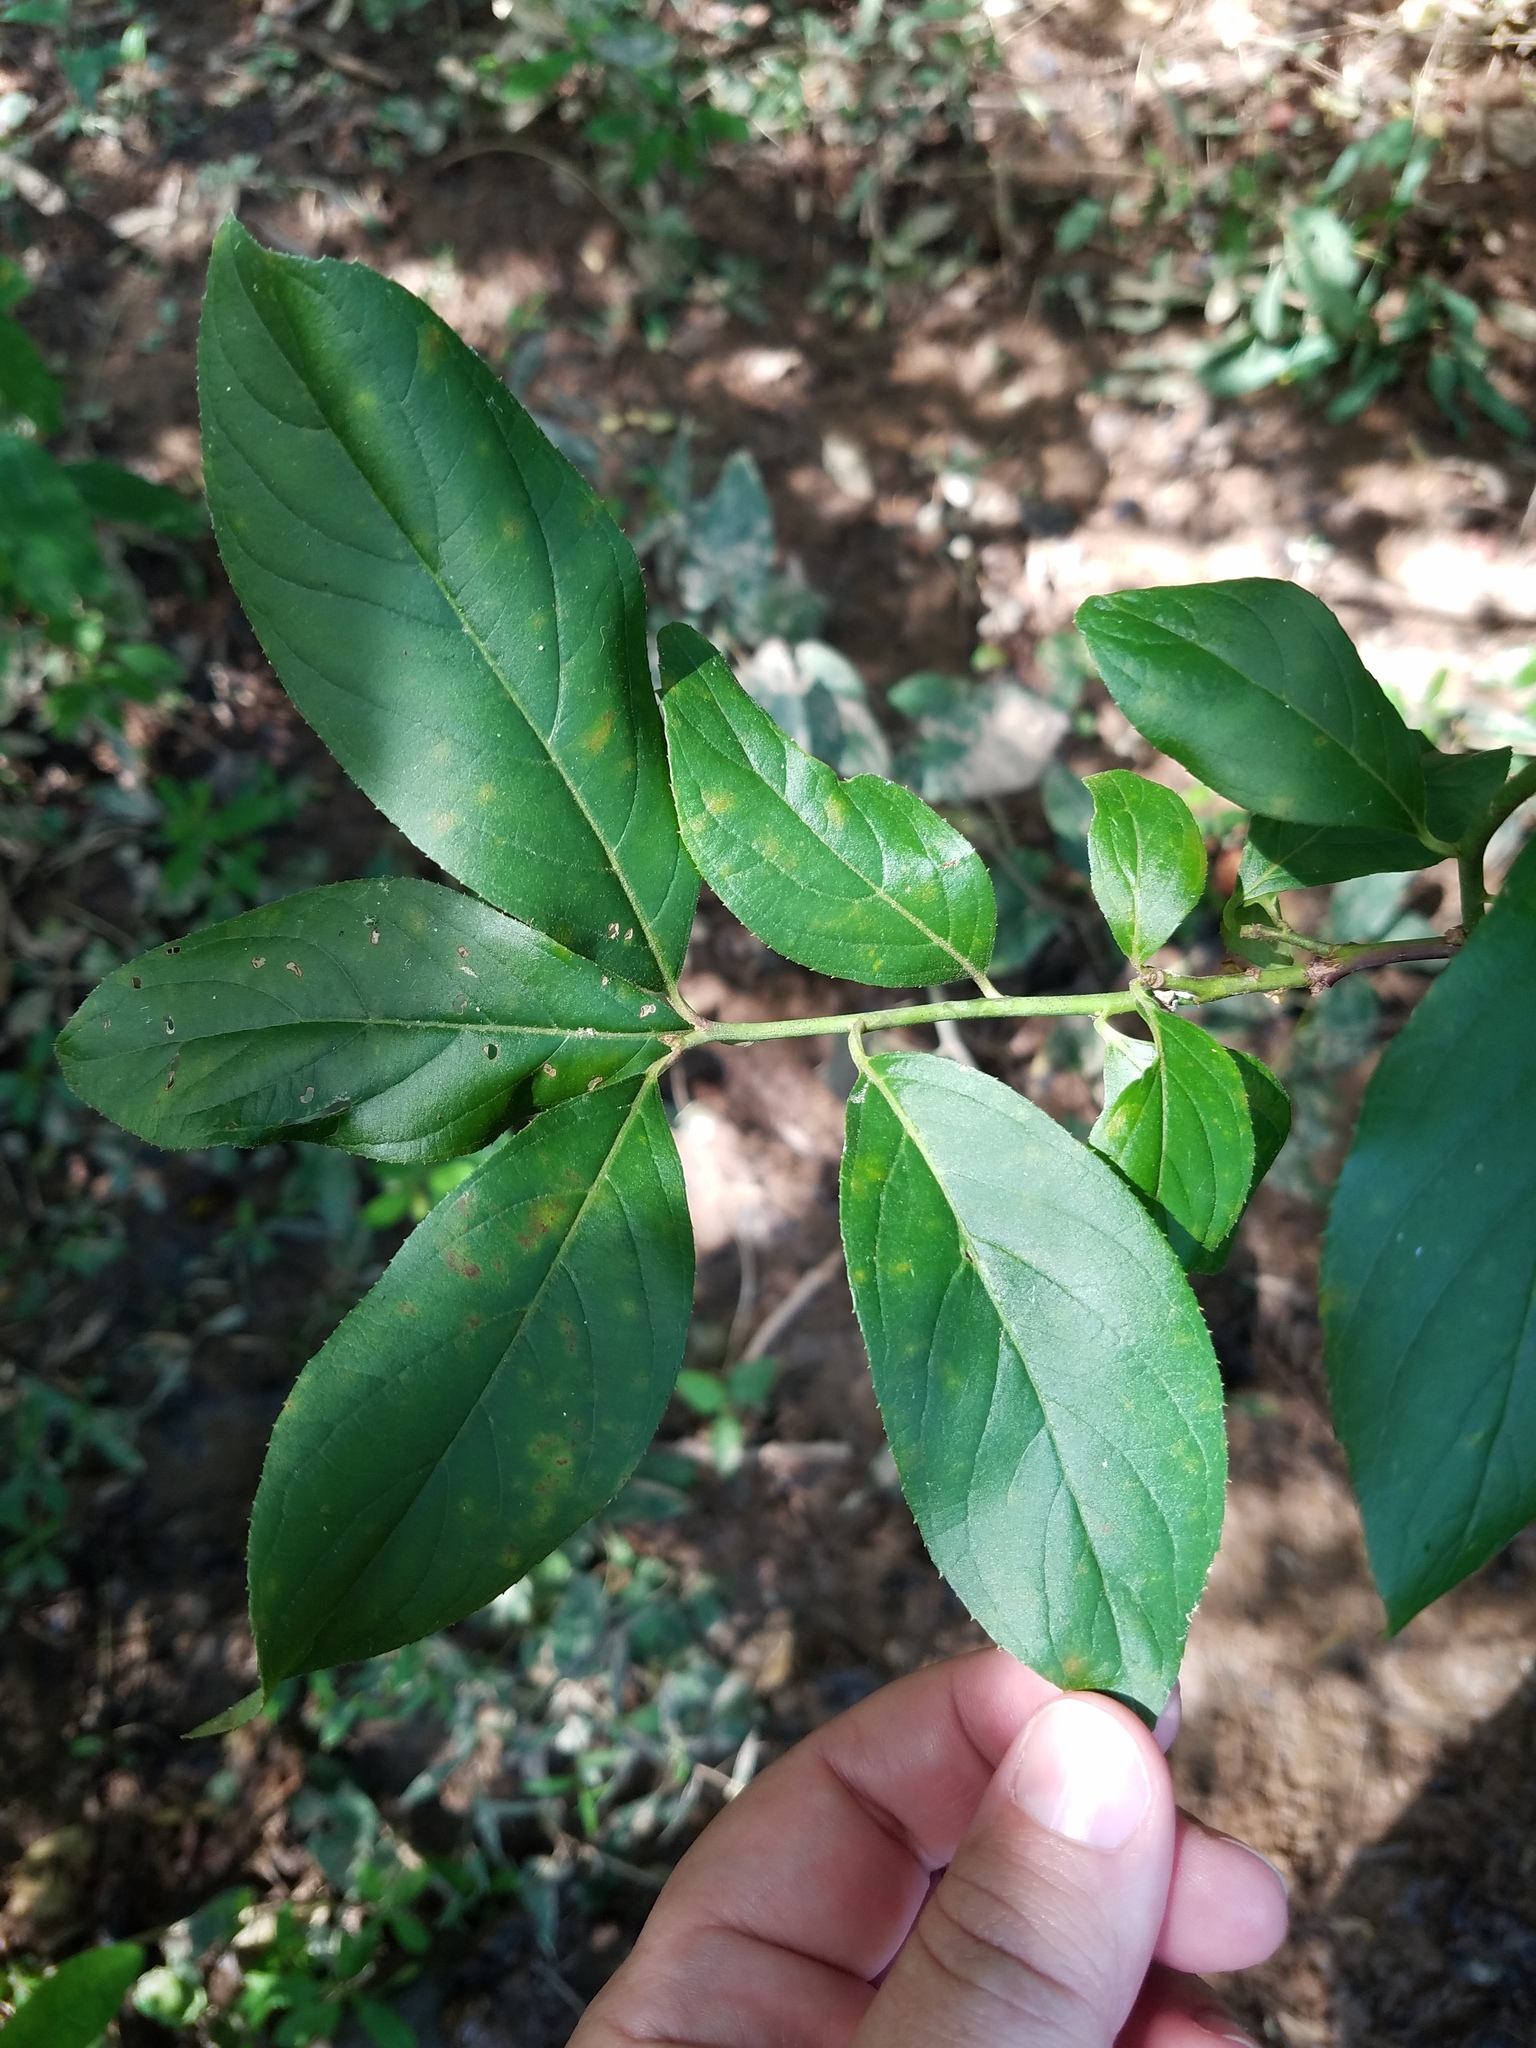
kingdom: Plantae
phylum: Tracheophyta
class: Magnoliopsida
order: Saxifragales
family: Iteaceae
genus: Itea
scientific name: Itea virginica
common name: Sweetspire
